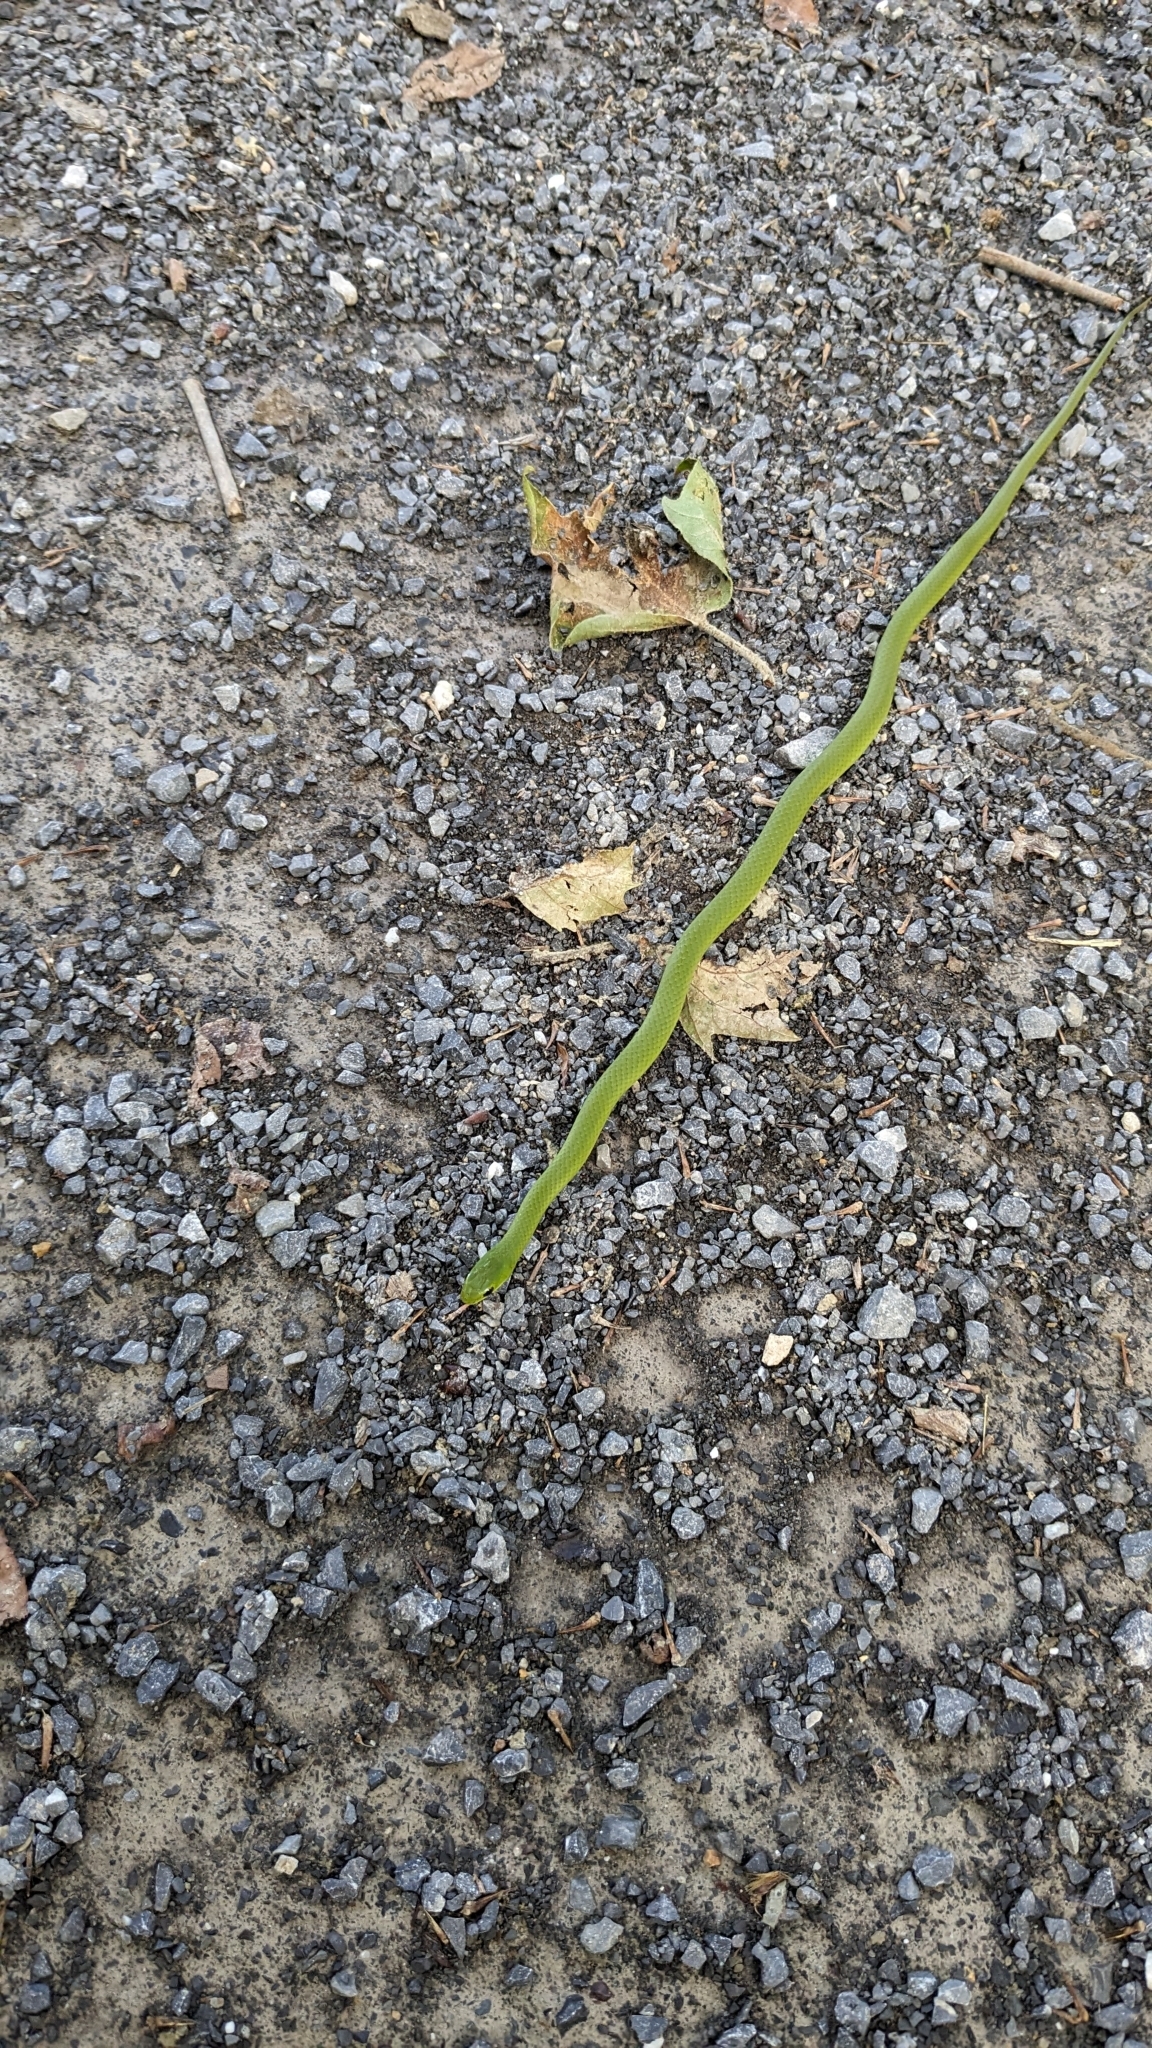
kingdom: Animalia
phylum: Chordata
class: Squamata
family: Colubridae
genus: Opheodrys
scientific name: Opheodrys vernalis
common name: Smooth green snake
